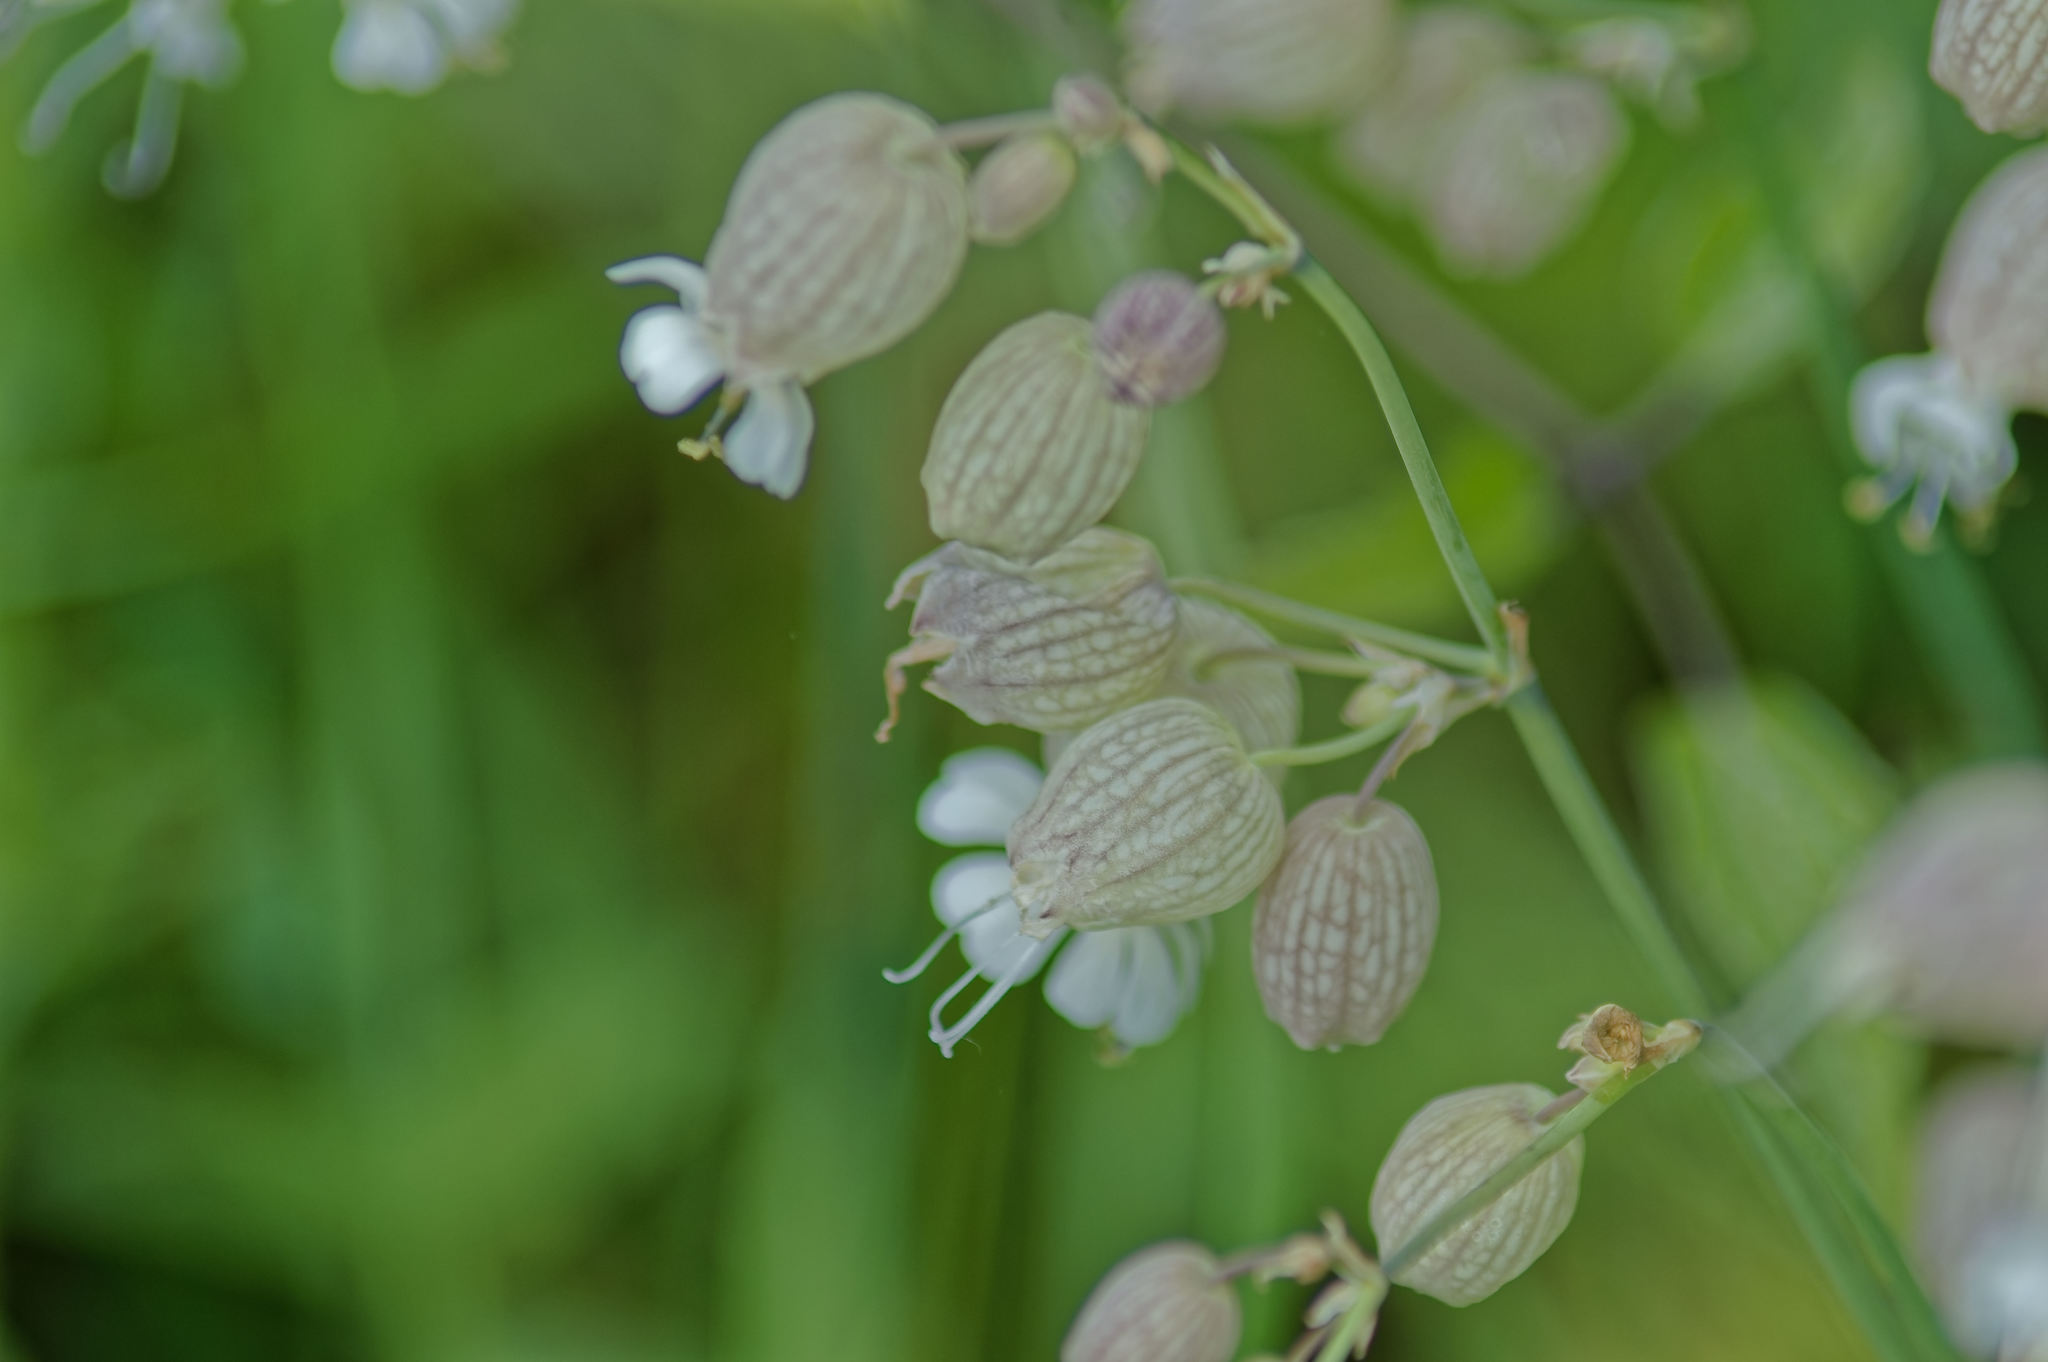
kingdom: Plantae
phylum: Tracheophyta
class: Magnoliopsida
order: Caryophyllales
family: Caryophyllaceae
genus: Silene
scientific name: Silene vulgaris
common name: Bladder campion
